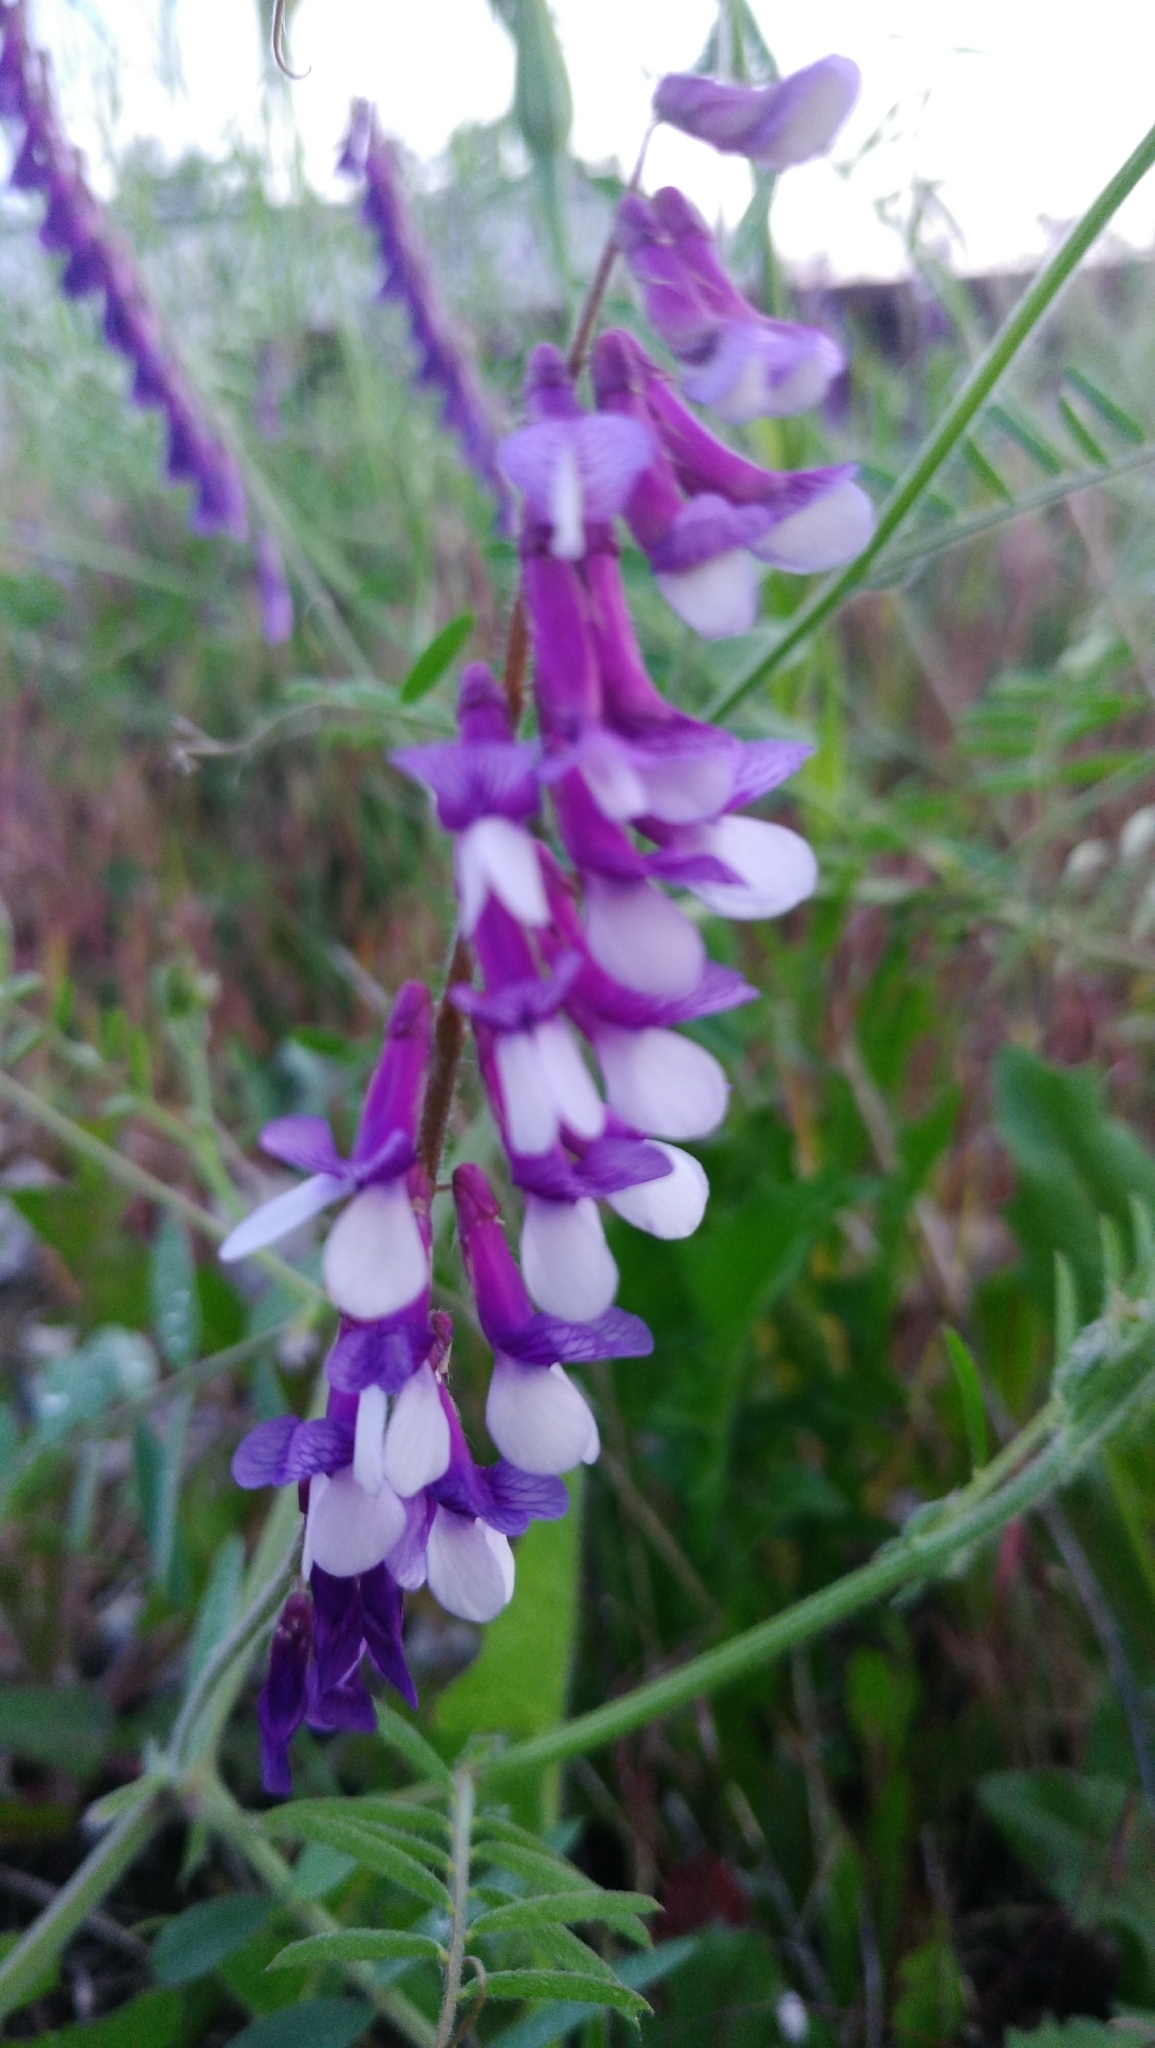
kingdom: Plantae
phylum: Tracheophyta
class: Magnoliopsida
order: Fabales
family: Fabaceae
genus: Vicia
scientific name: Vicia villosa
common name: Fodder vetch
